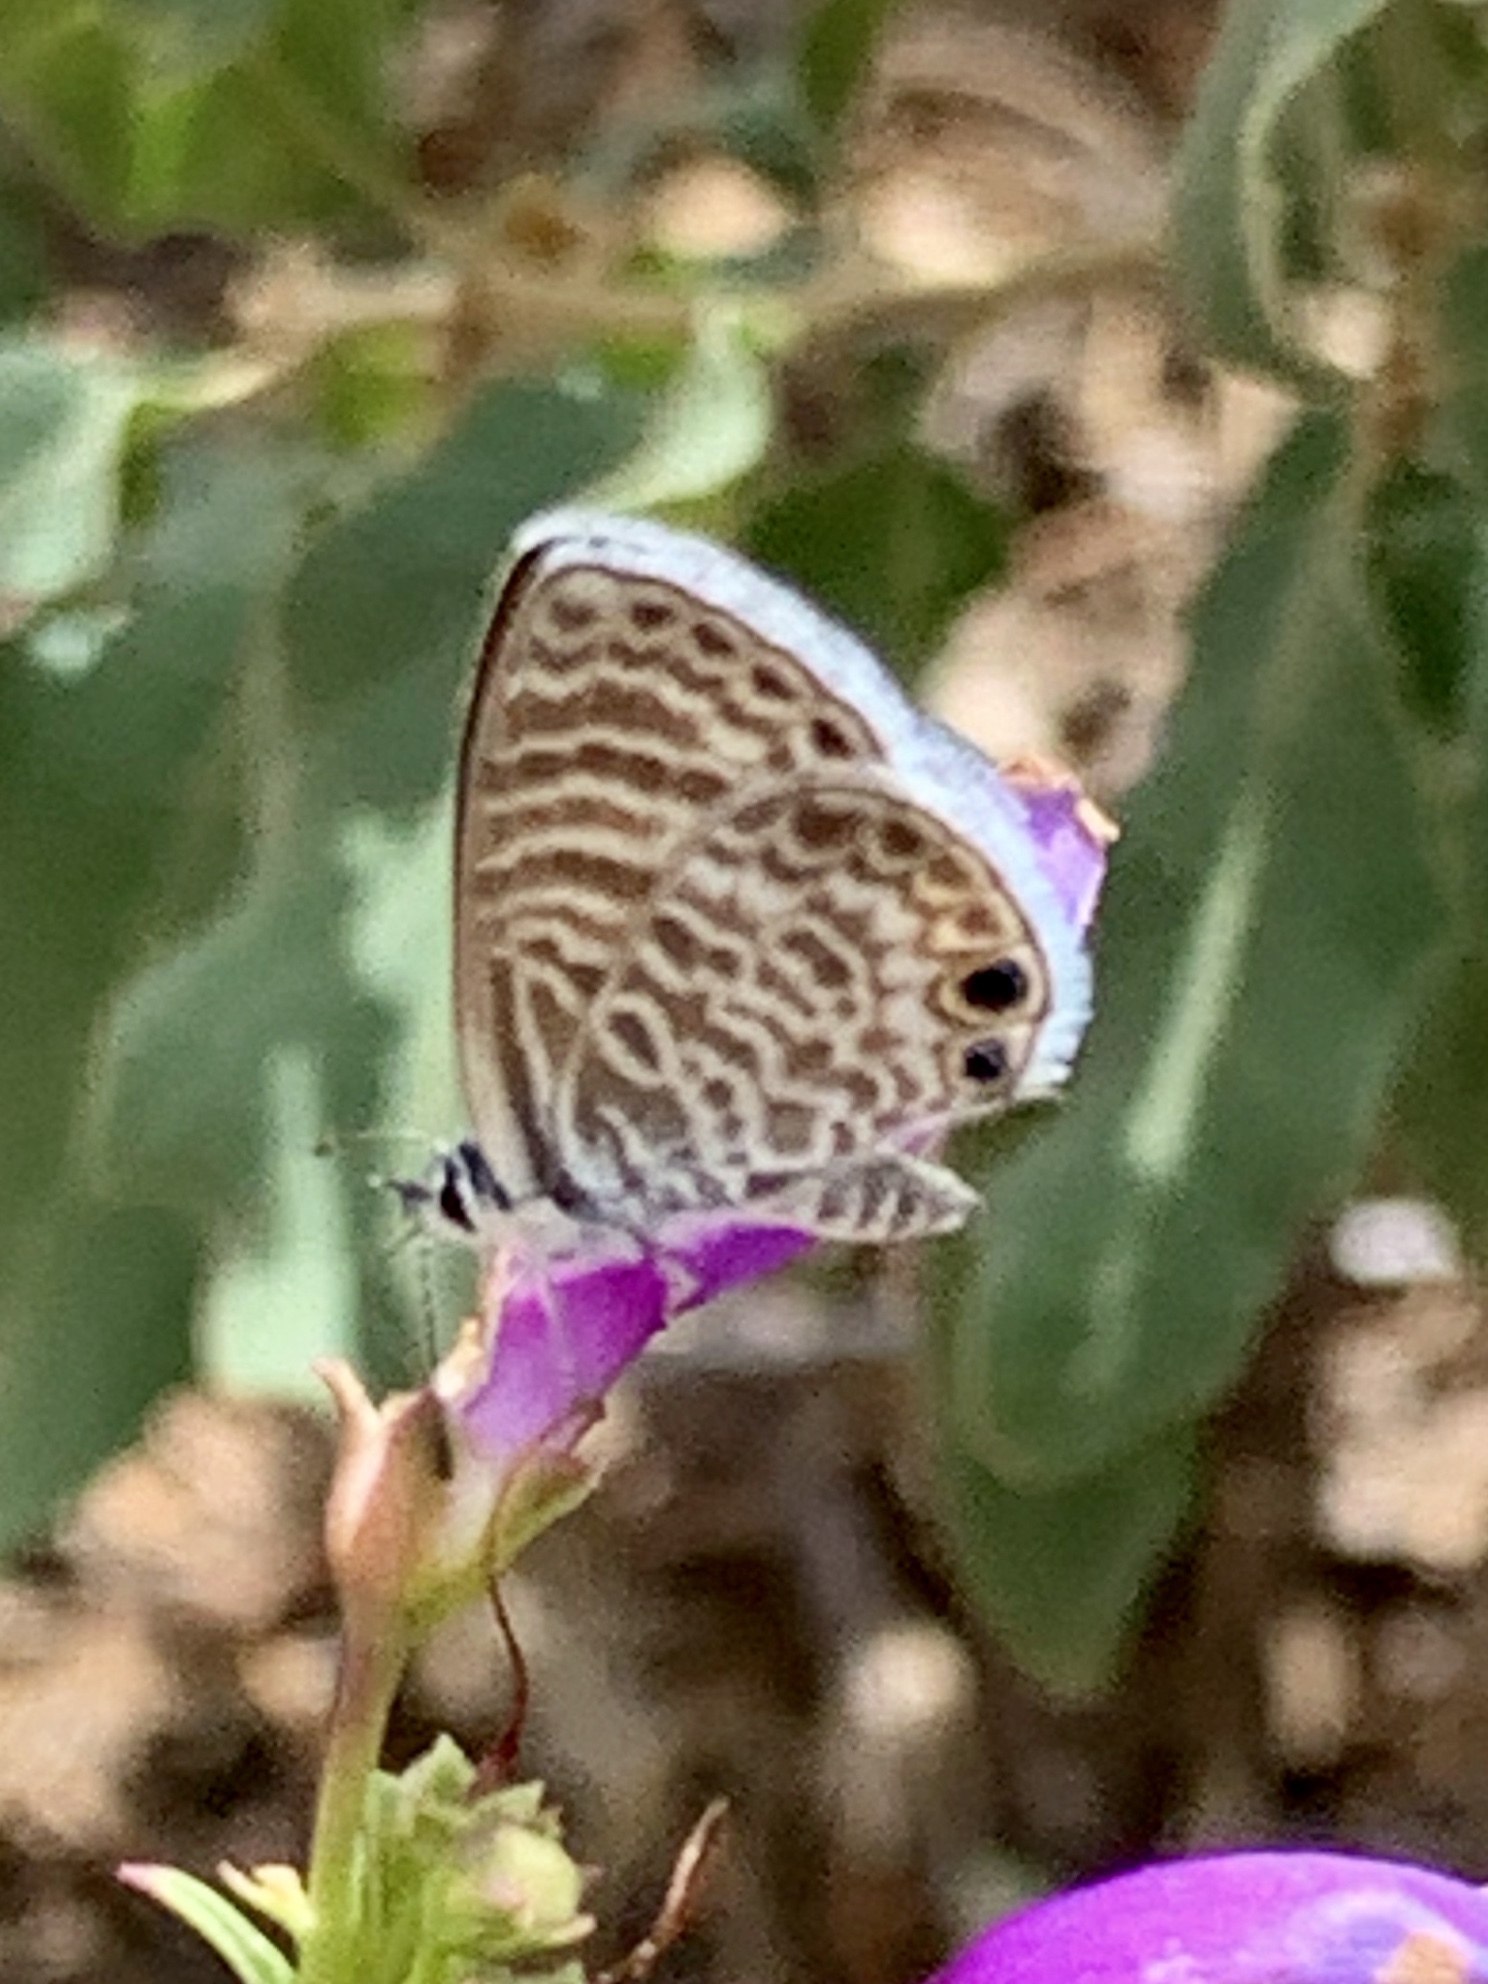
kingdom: Animalia
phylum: Arthropoda
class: Insecta
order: Lepidoptera
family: Lycaenidae
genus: Leptotes
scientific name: Leptotes marina
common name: Marine blue
